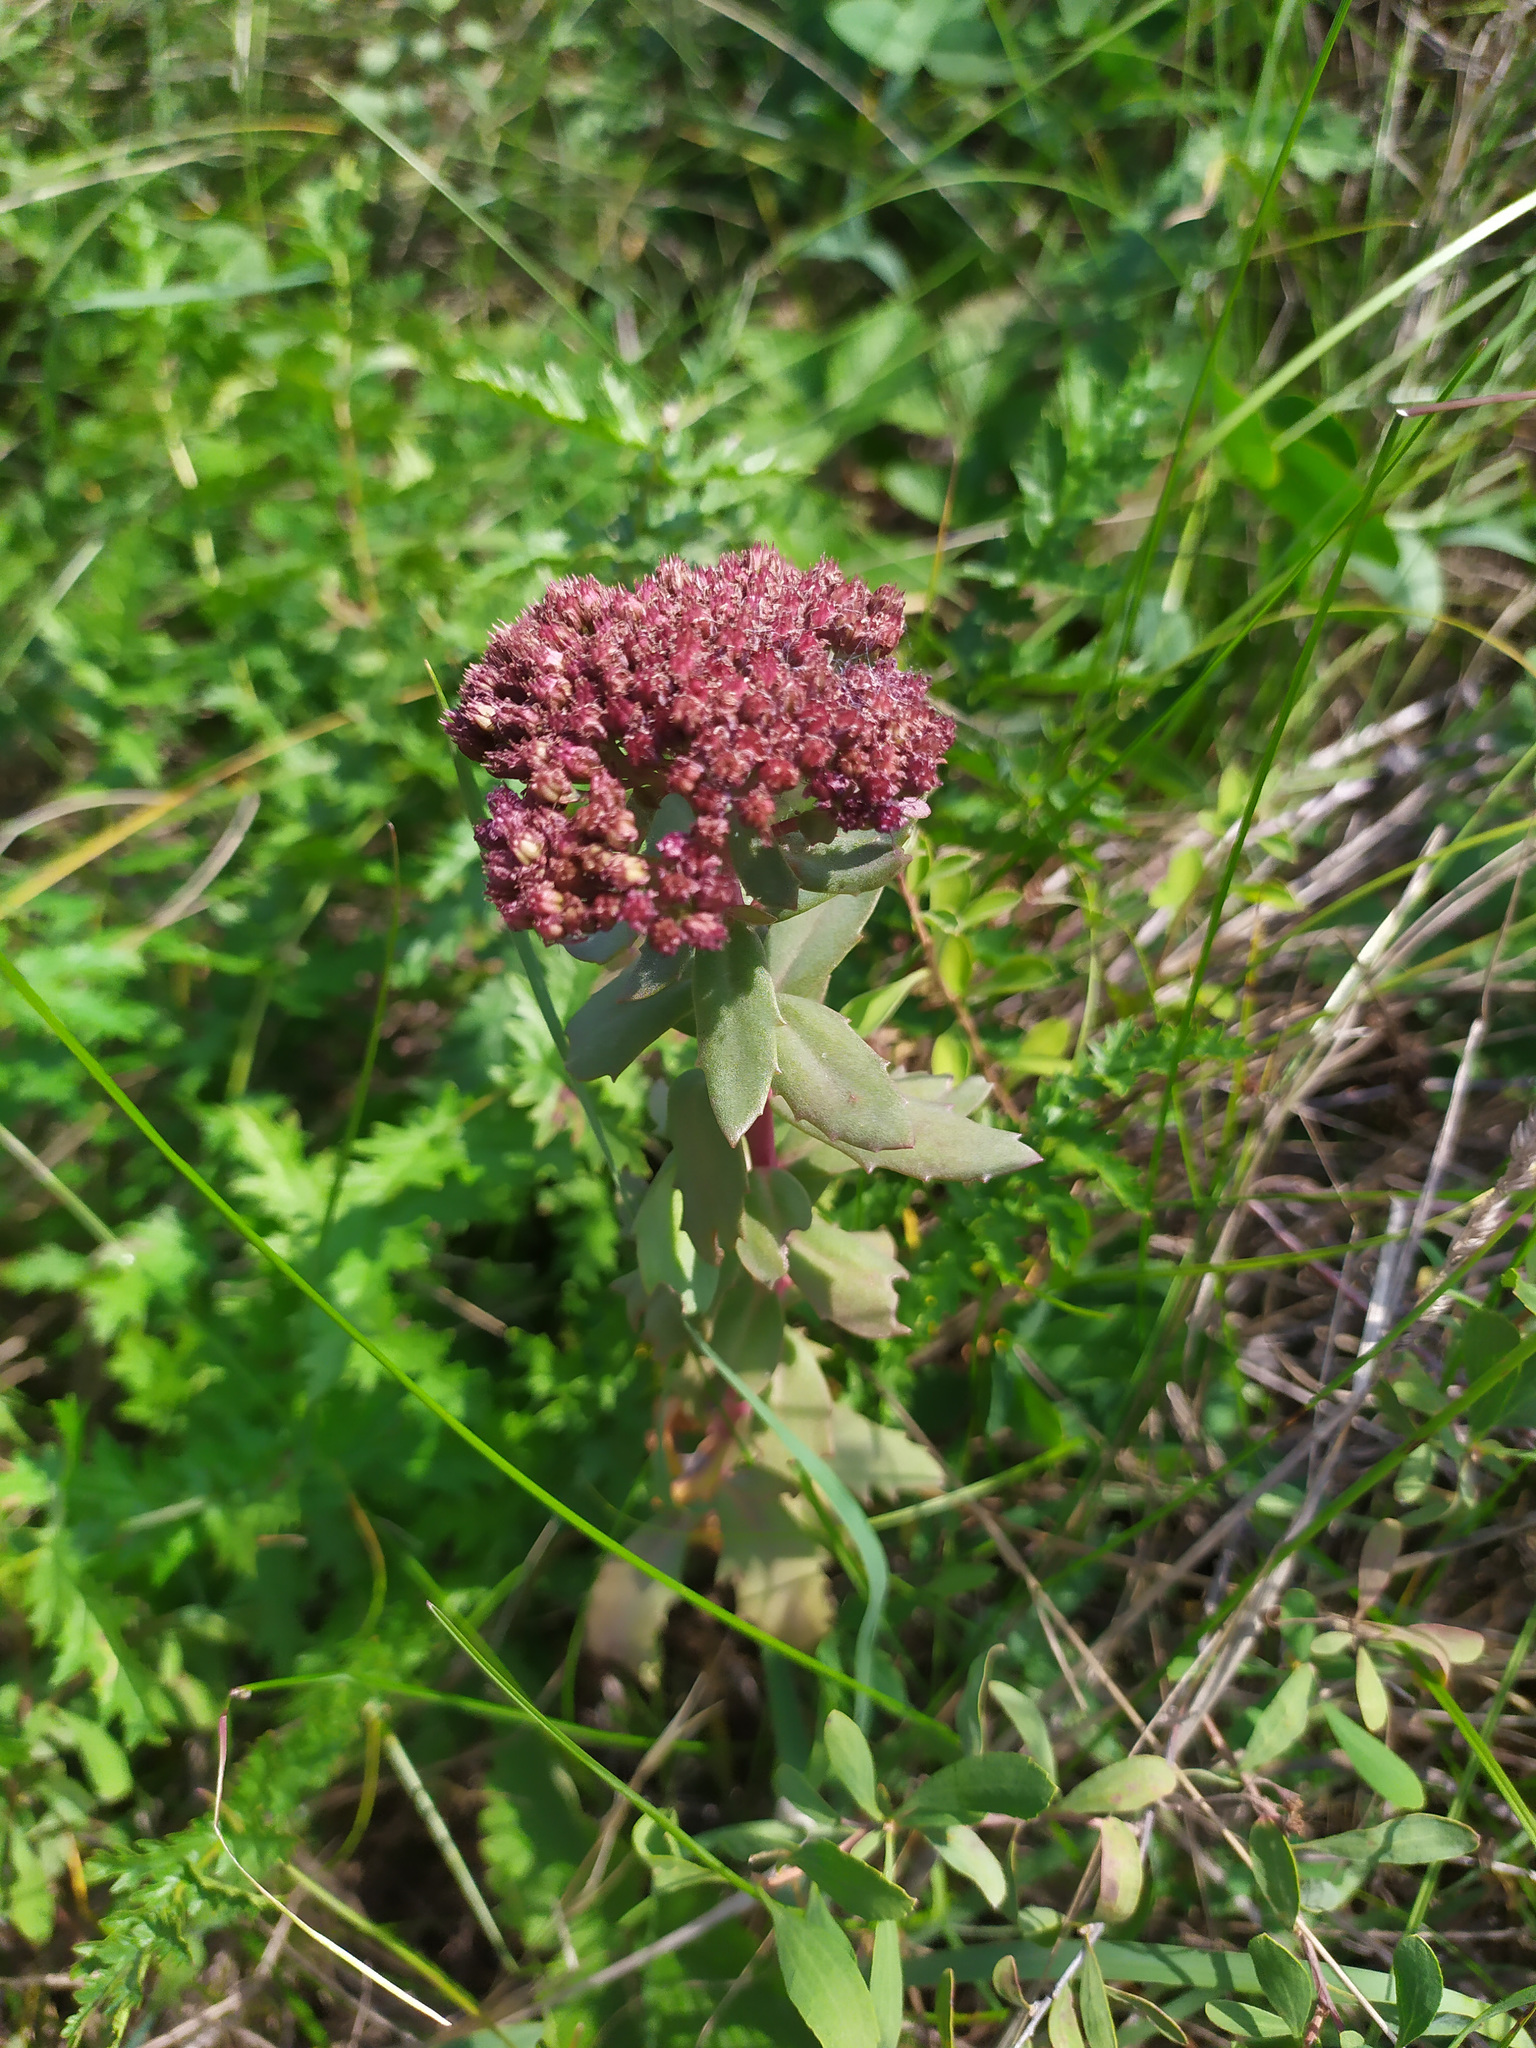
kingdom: Plantae
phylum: Tracheophyta
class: Magnoliopsida
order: Saxifragales
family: Crassulaceae
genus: Hylotelephium
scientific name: Hylotelephium telephium
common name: Live-forever
